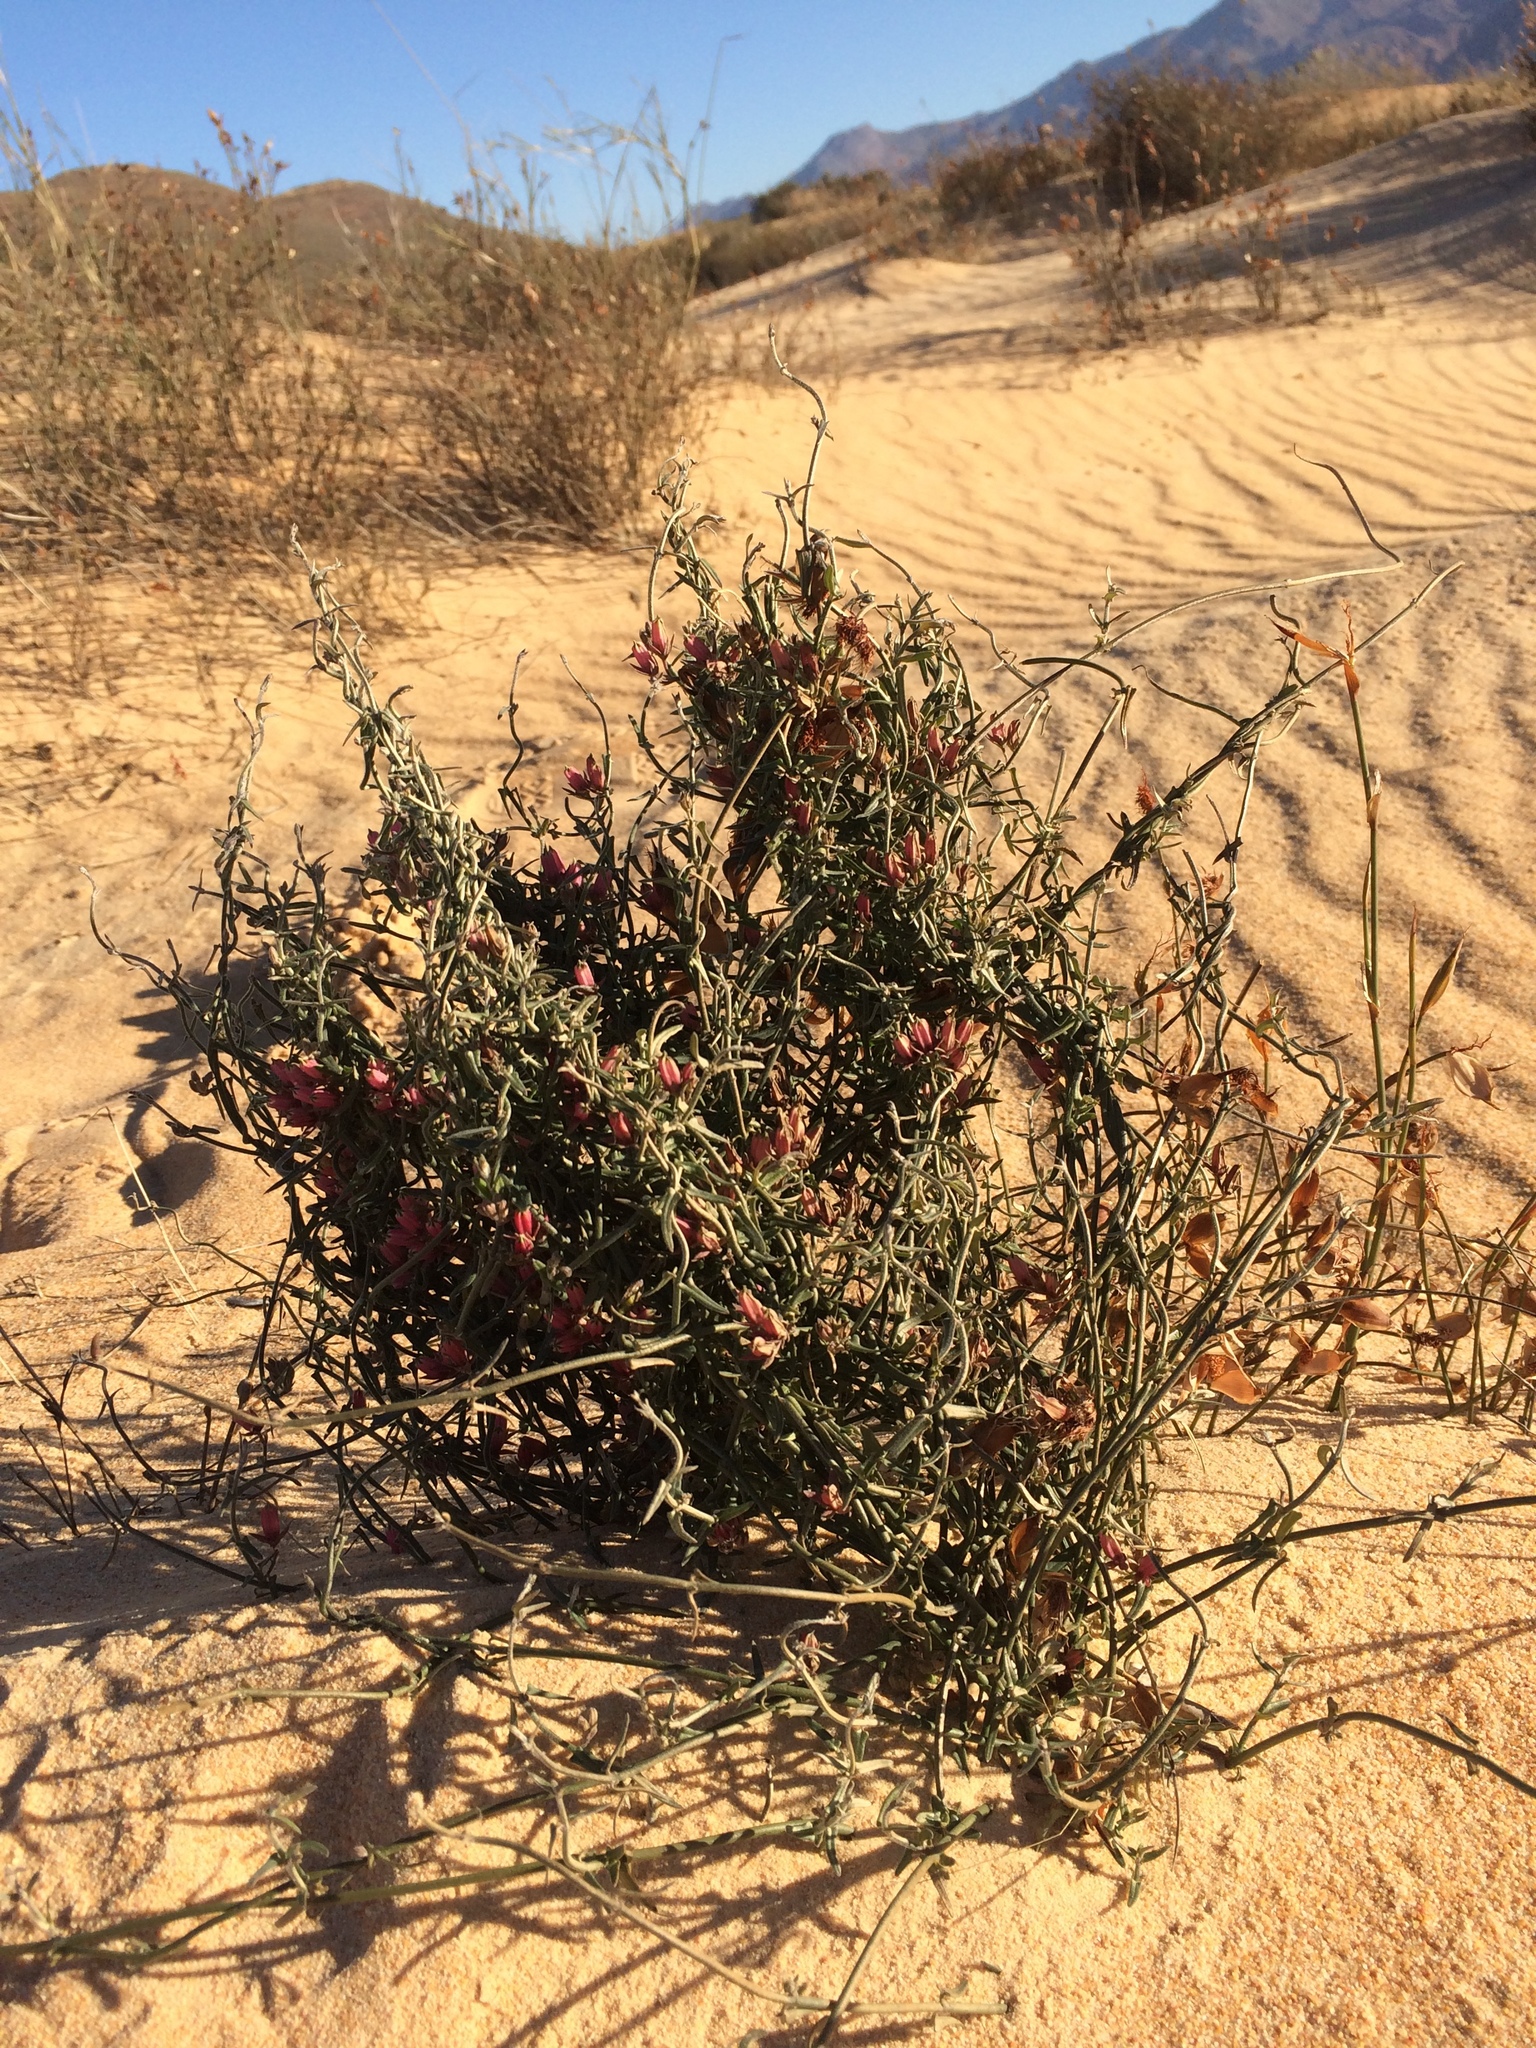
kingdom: Plantae
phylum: Tracheophyta
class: Magnoliopsida
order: Gentianales
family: Apocynaceae
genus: Microloma
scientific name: Microloma sagittatum
